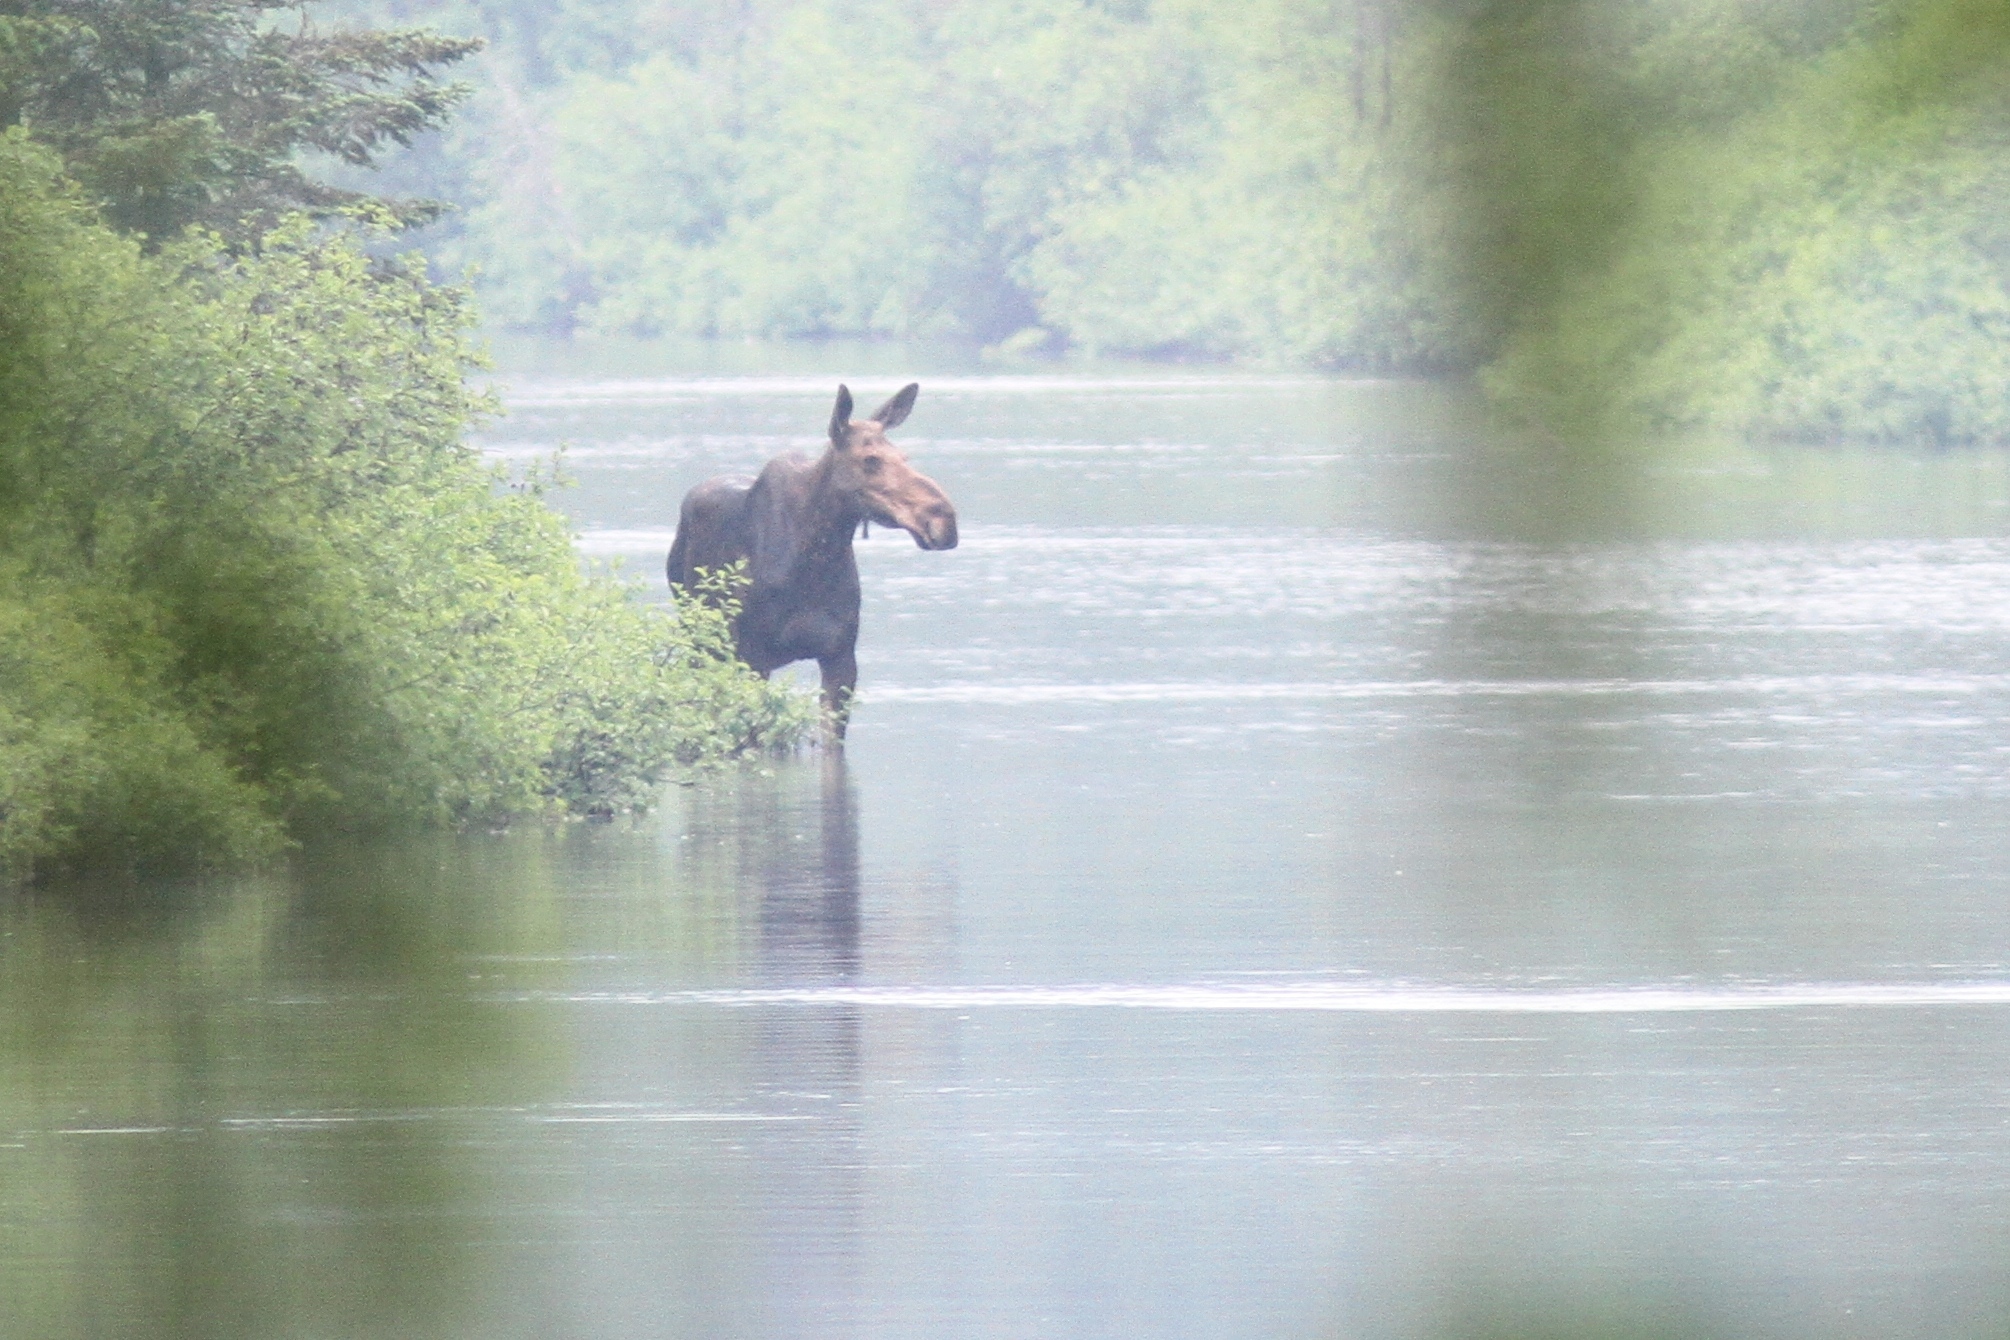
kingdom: Animalia
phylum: Chordata
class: Mammalia
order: Artiodactyla
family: Cervidae
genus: Alces
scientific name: Alces alces
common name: Moose
